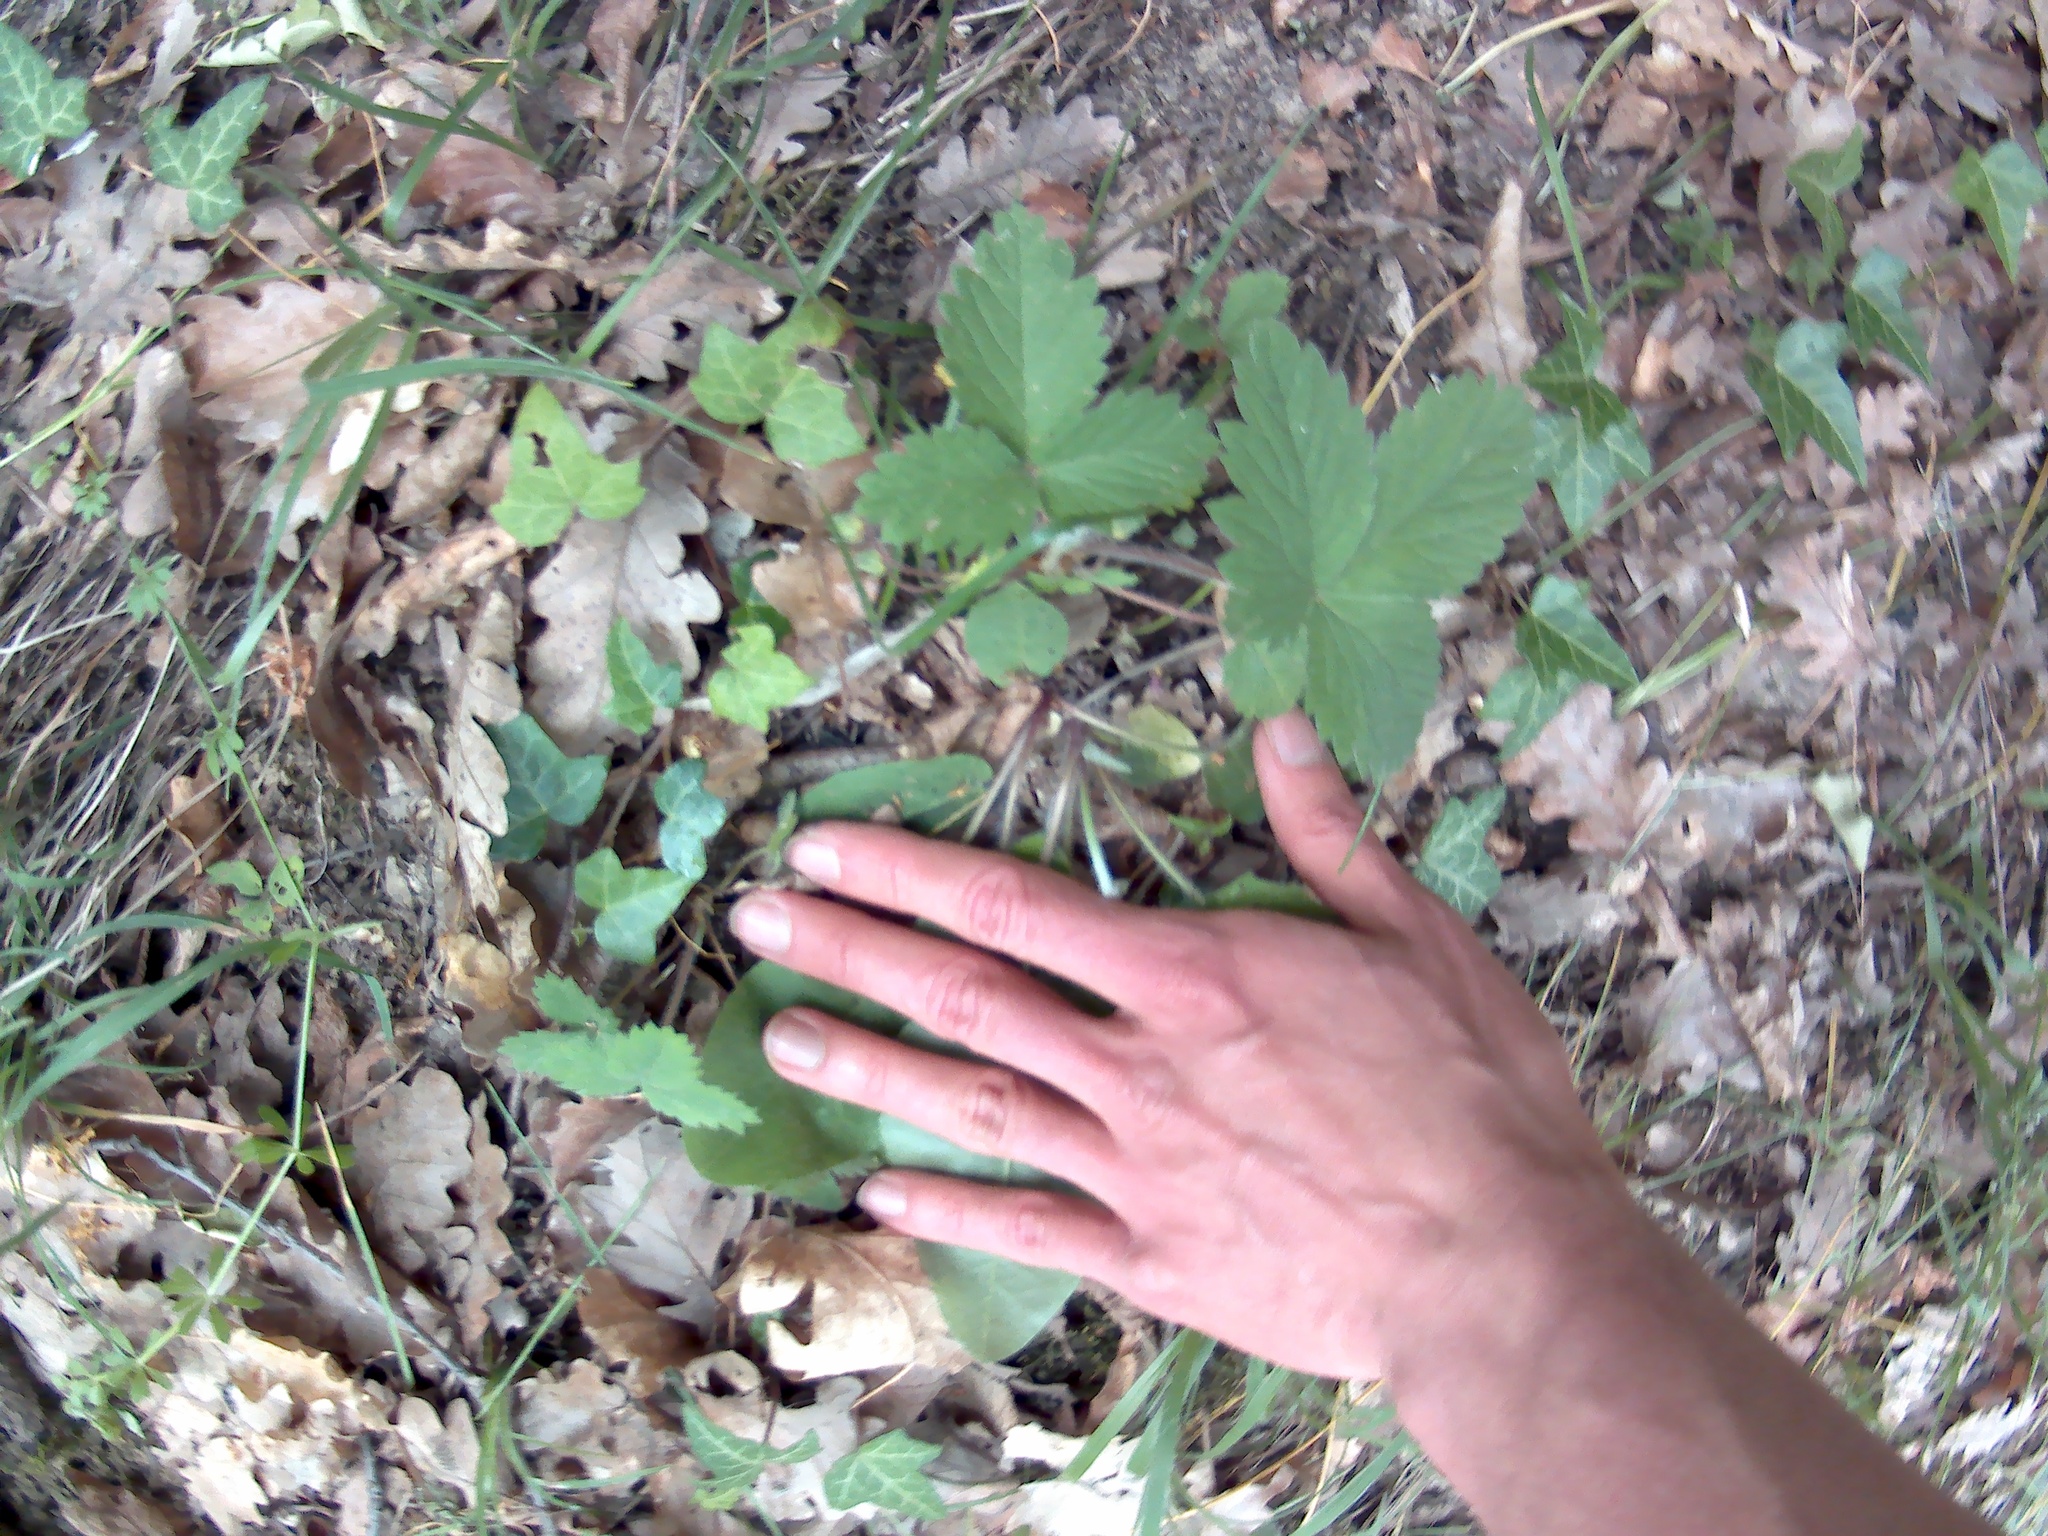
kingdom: Plantae
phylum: Tracheophyta
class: Magnoliopsida
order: Rosales
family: Rosaceae
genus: Fragaria
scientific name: Fragaria viridis
